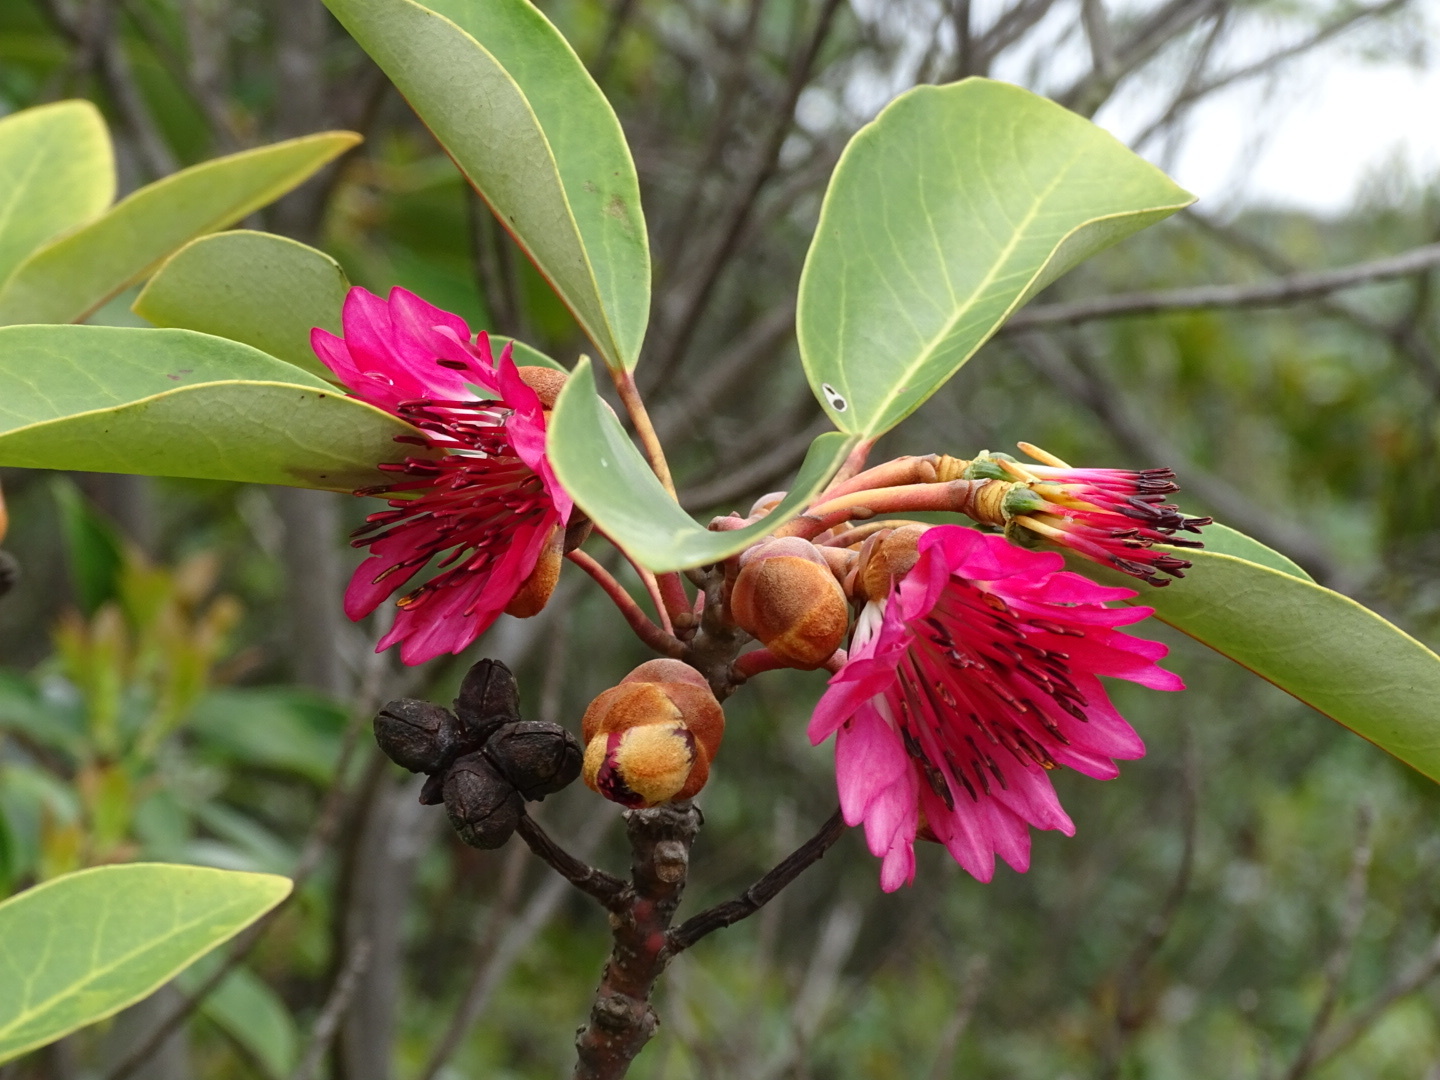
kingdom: Plantae
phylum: Tracheophyta
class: Magnoliopsida
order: Saxifragales
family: Hamamelidaceae
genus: Rhodoleia
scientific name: Rhodoleia championii
